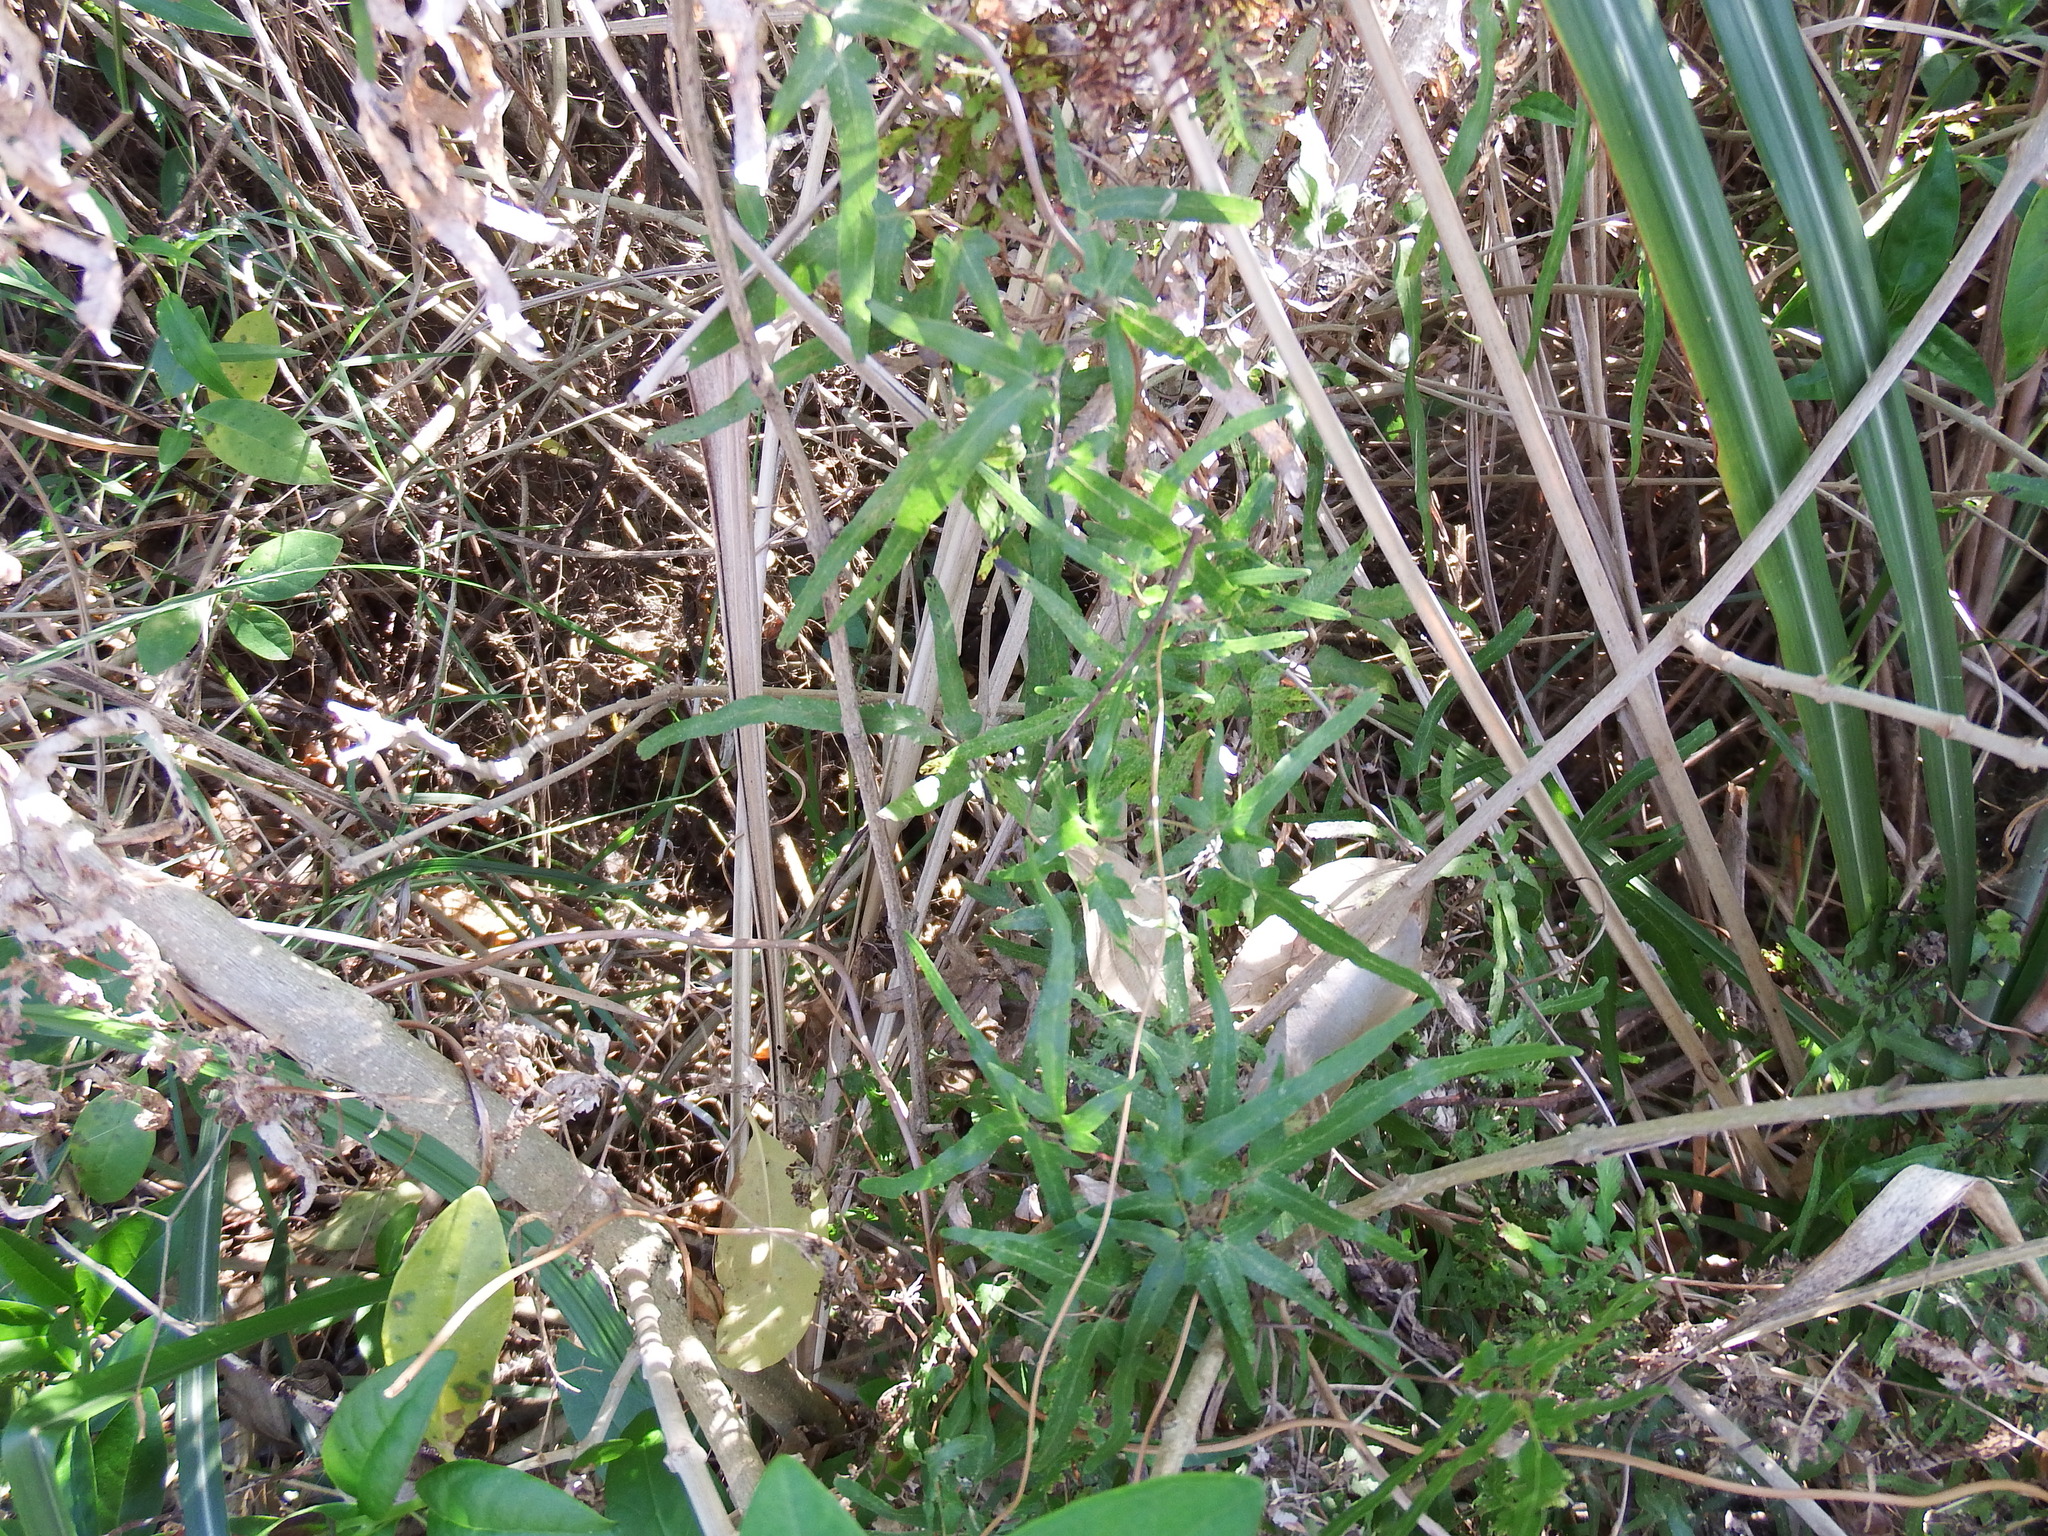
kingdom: Plantae
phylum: Tracheophyta
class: Polypodiopsida
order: Schizaeales
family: Lygodiaceae
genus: Lygodium
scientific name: Lygodium japonicum
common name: Japanese climbing fern
